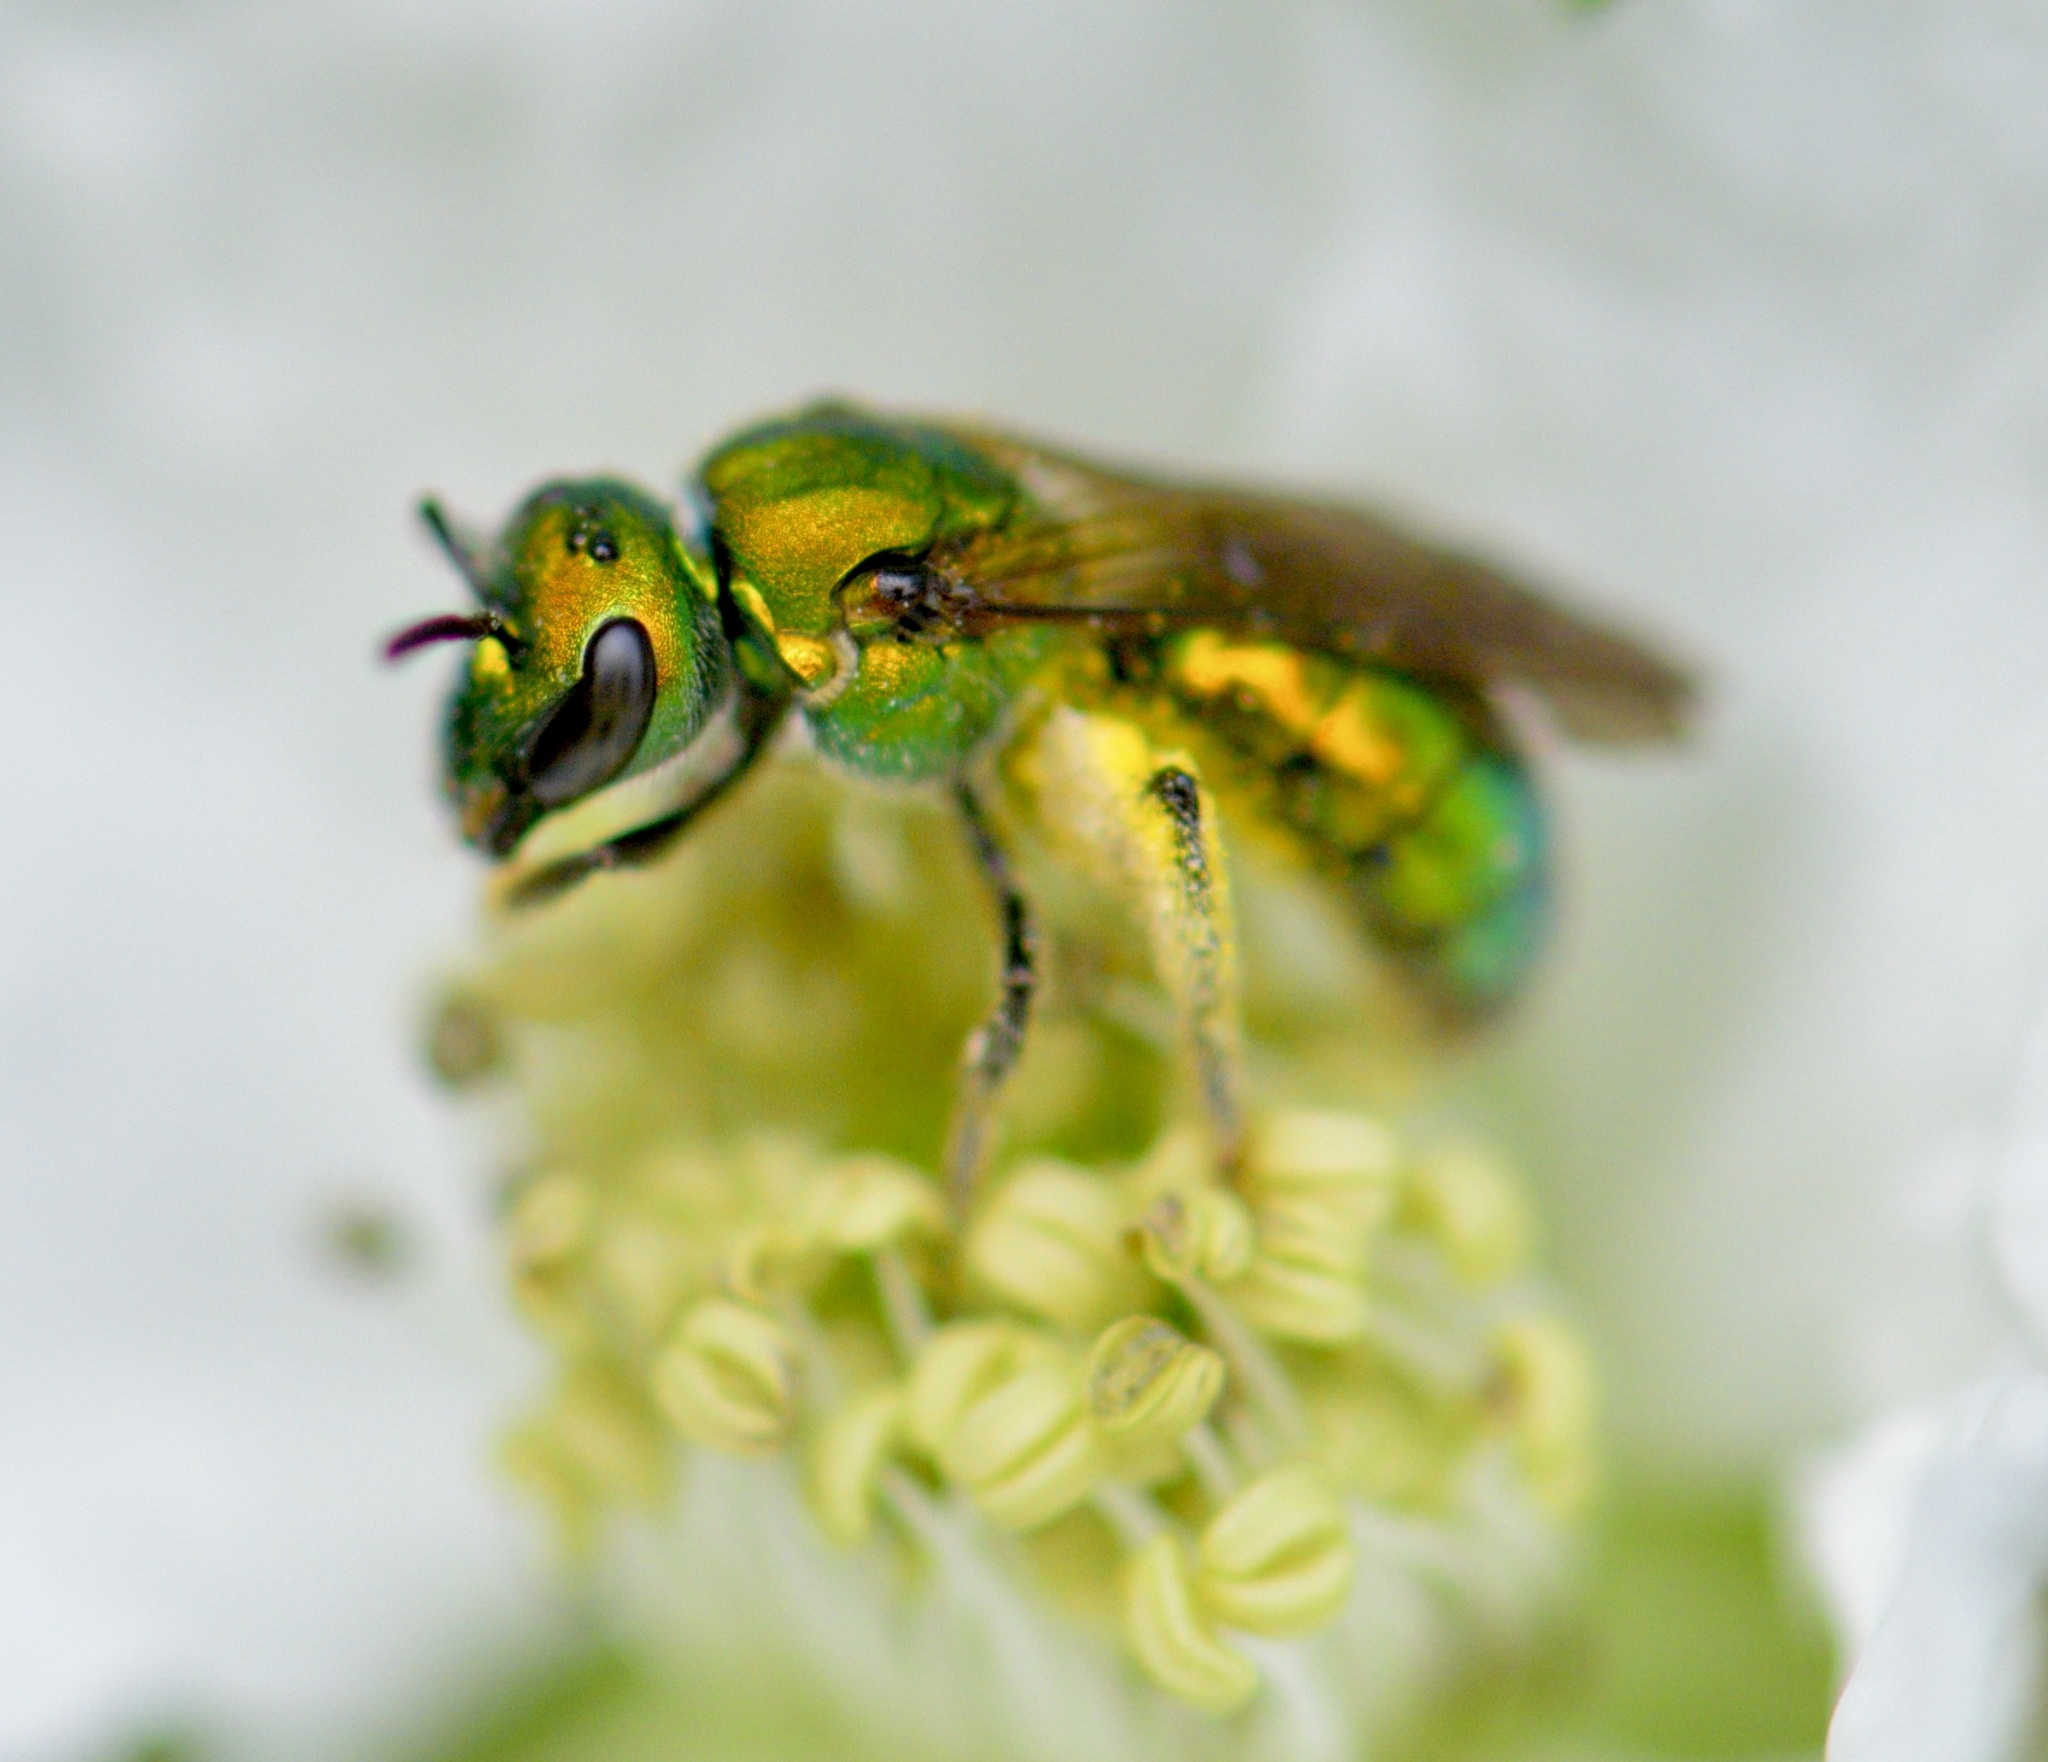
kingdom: Animalia
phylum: Arthropoda
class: Insecta
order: Hymenoptera
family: Halictidae
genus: Augochlora
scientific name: Augochlora pura
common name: Pure green sweat bee
